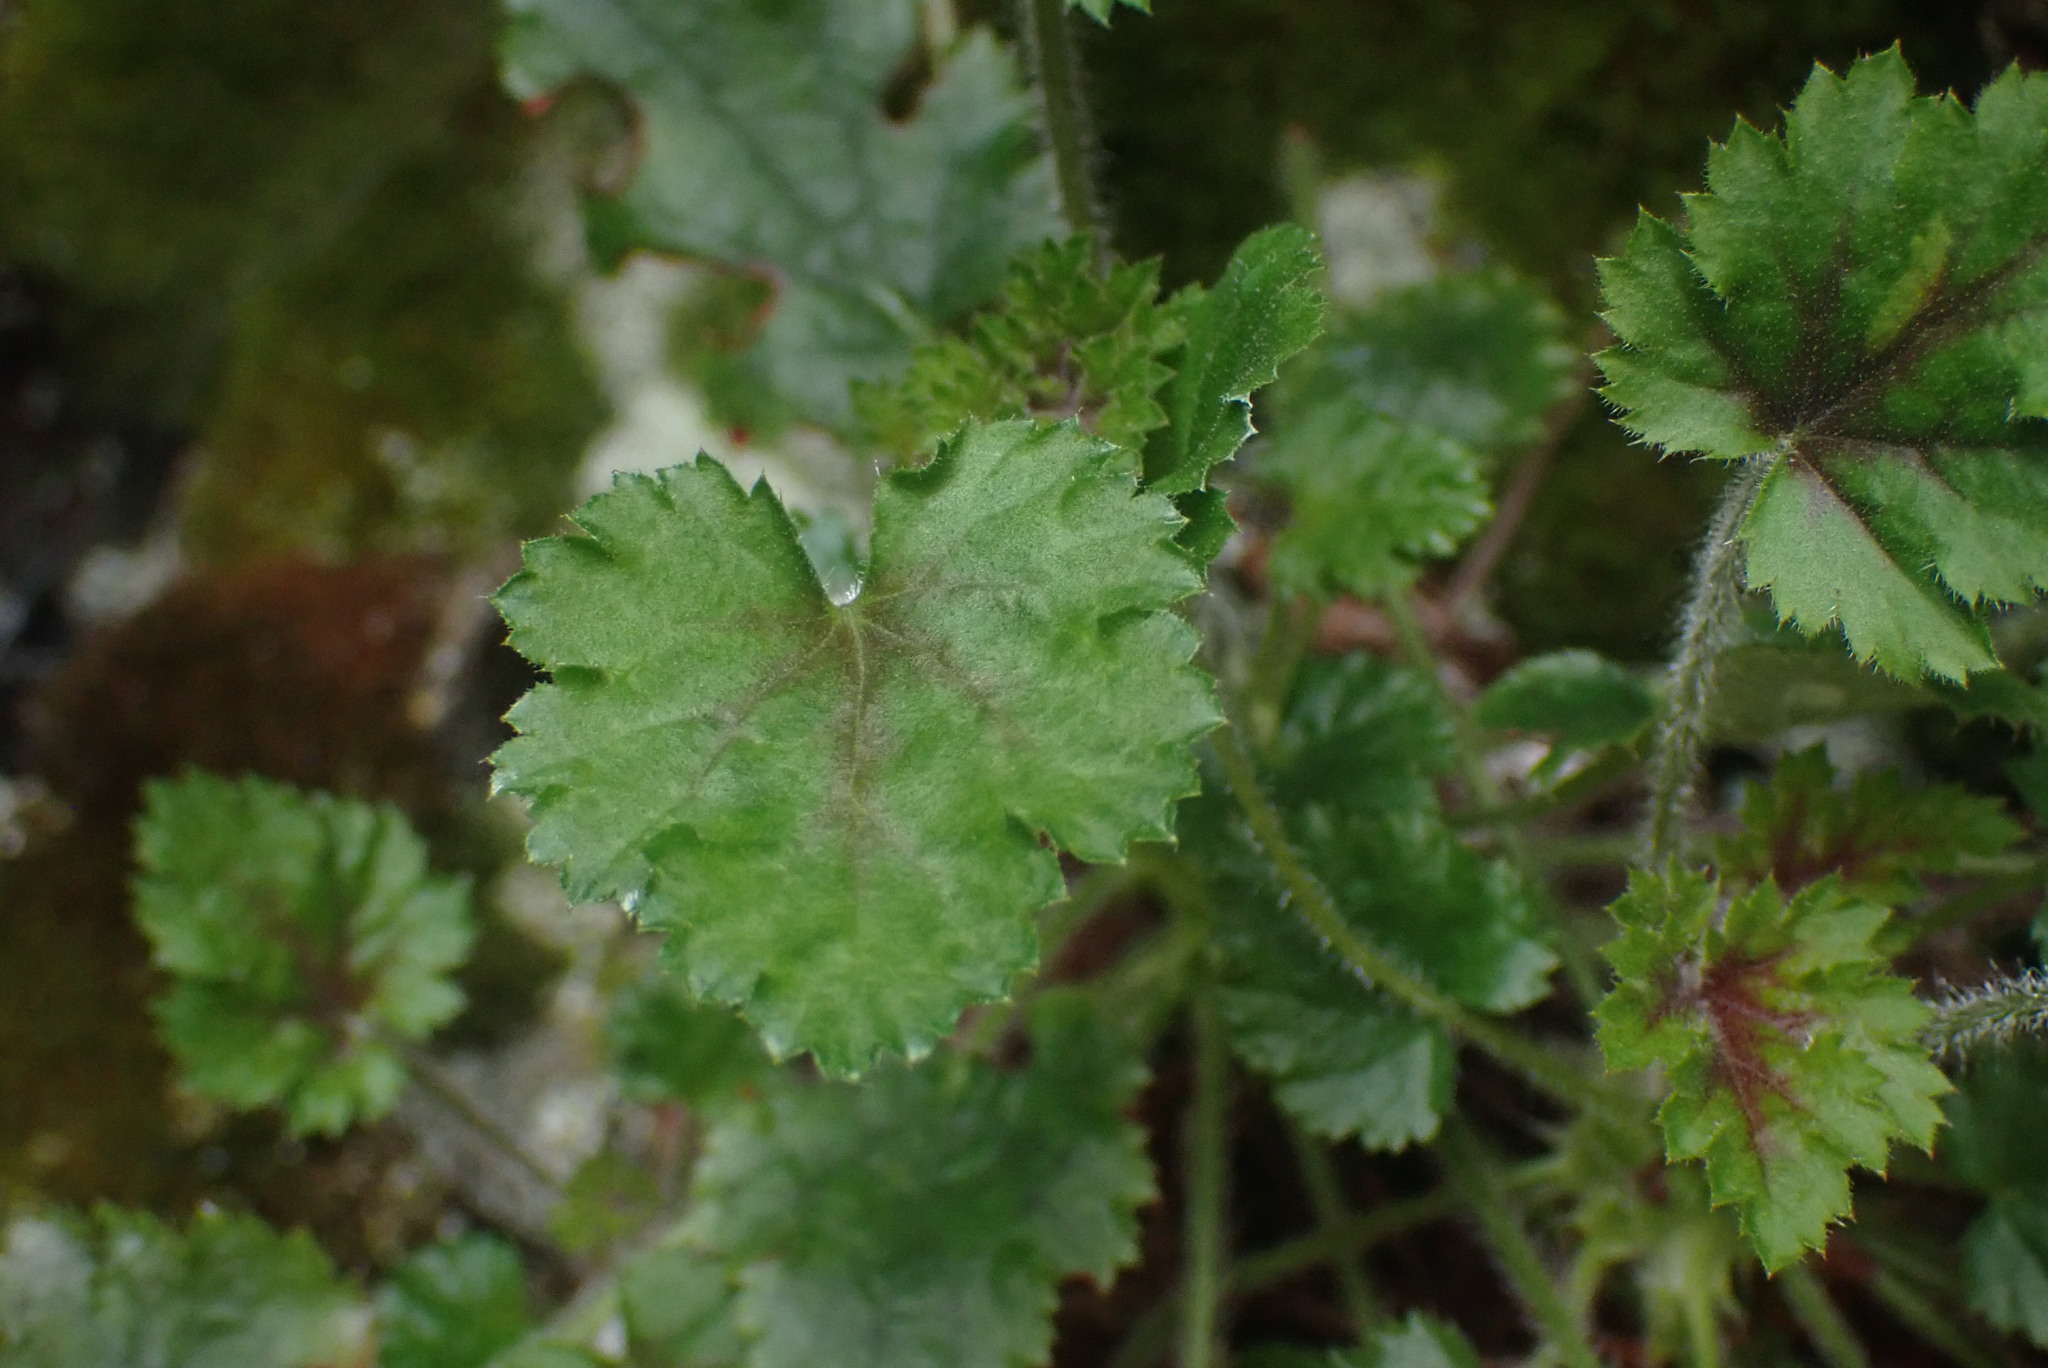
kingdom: Plantae
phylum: Tracheophyta
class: Magnoliopsida
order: Saxifragales
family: Saxifragaceae
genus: Heuchera
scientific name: Heuchera micrantha
